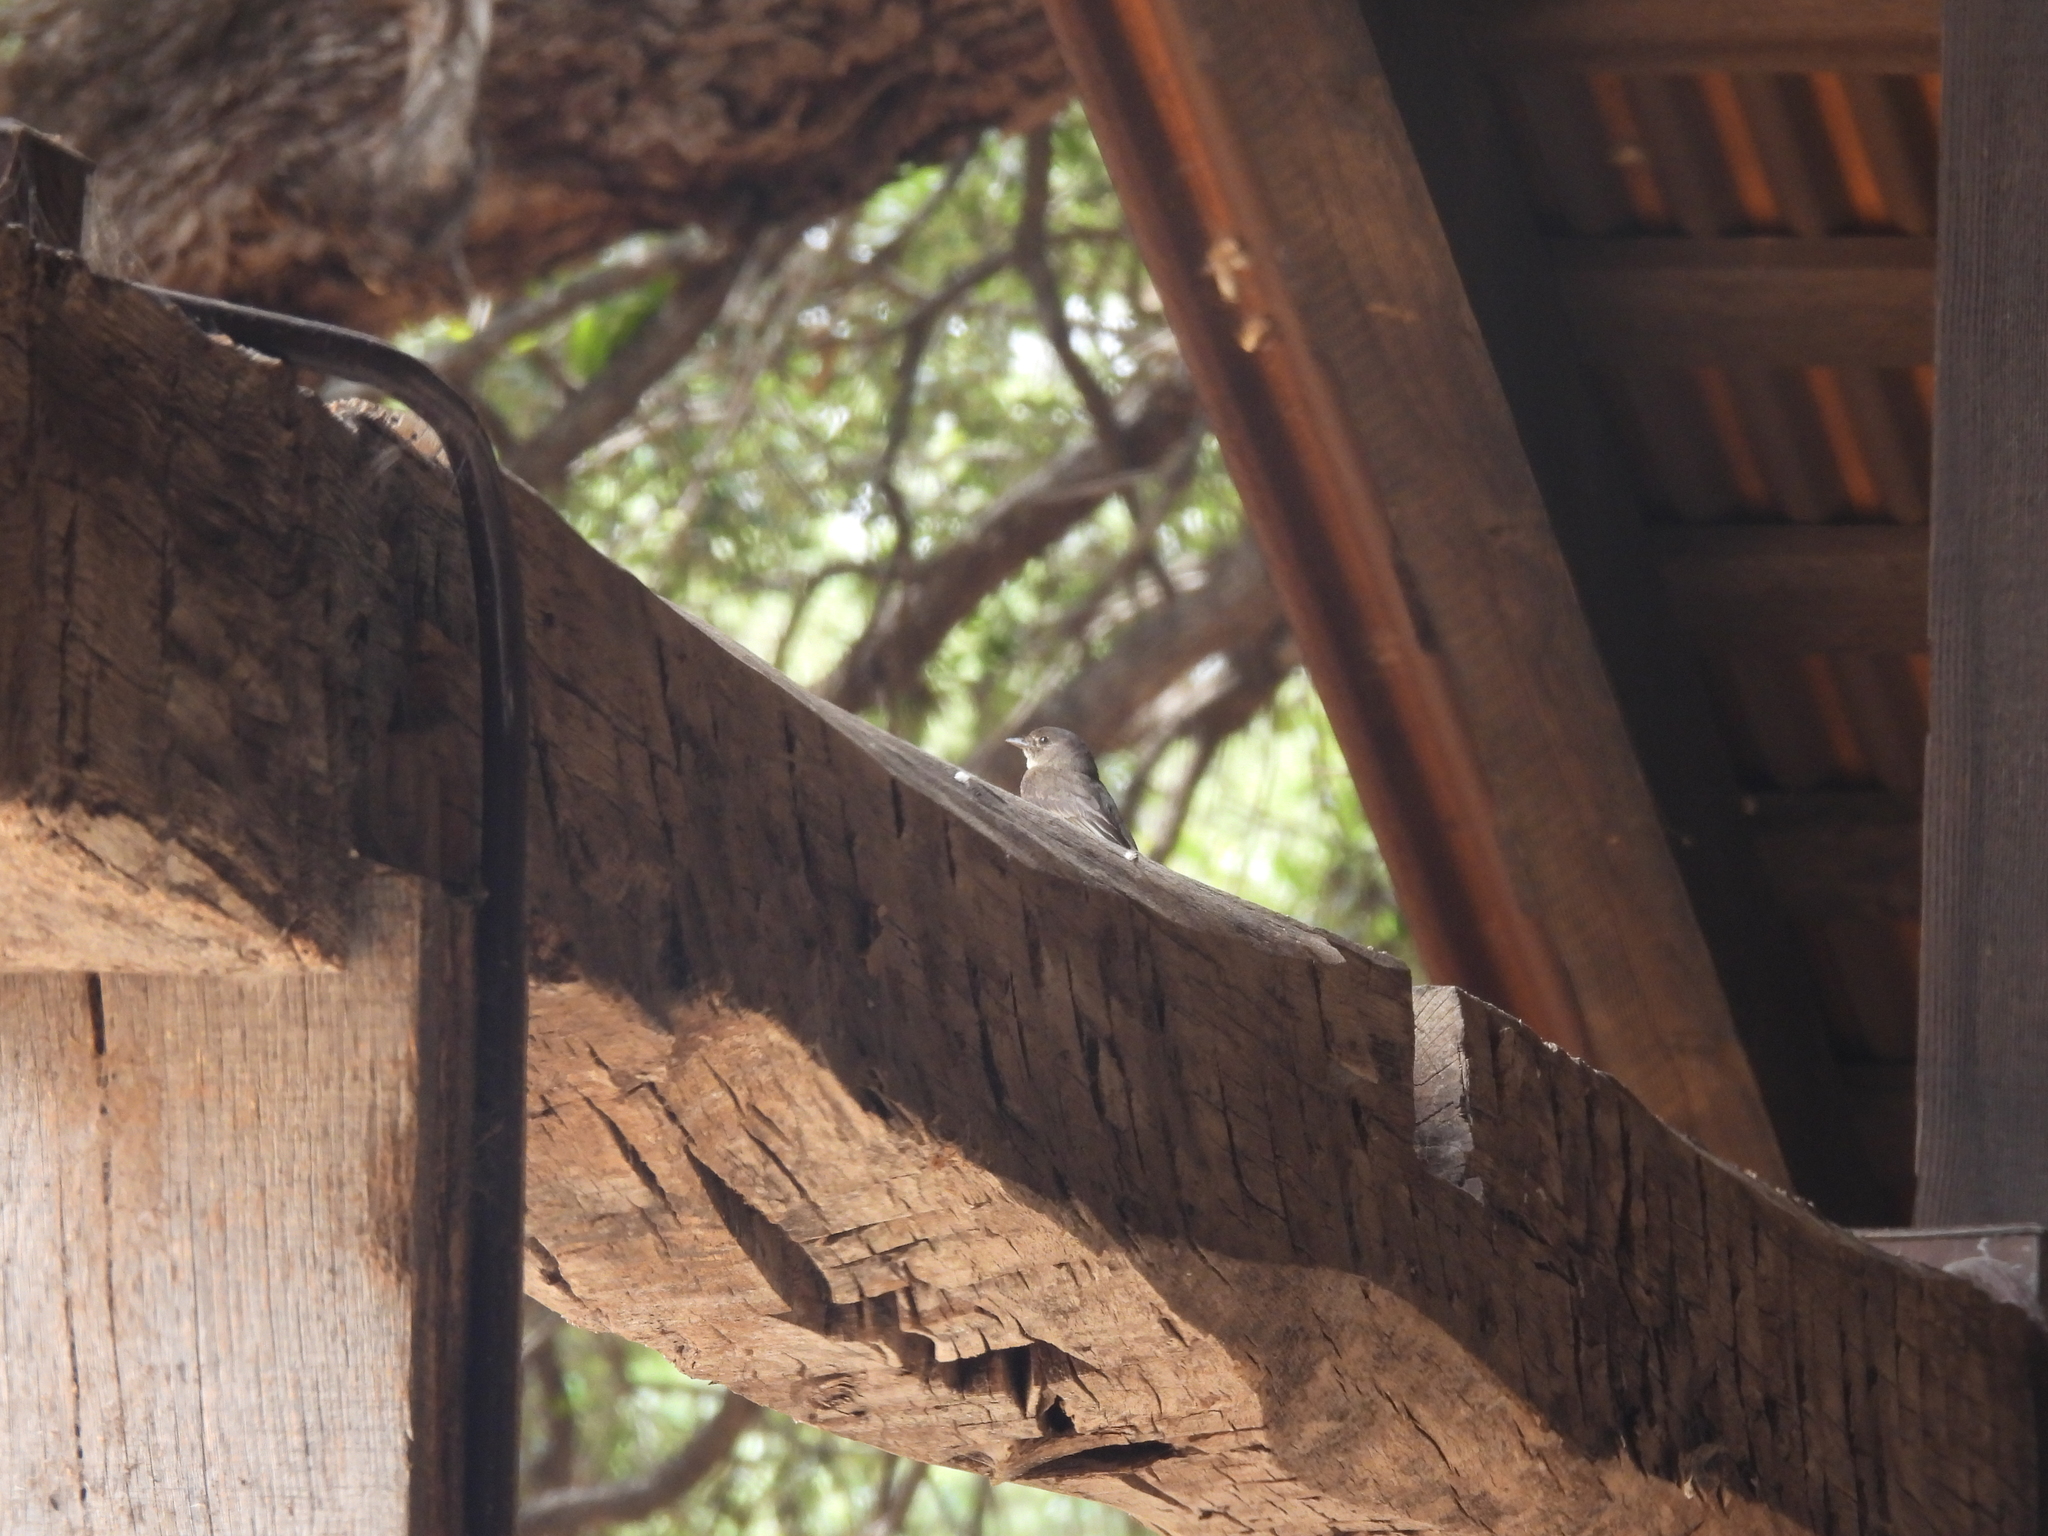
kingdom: Animalia
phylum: Chordata
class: Aves
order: Passeriformes
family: Tyrannidae
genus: Sayornis
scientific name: Sayornis phoebe
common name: Eastern phoebe
